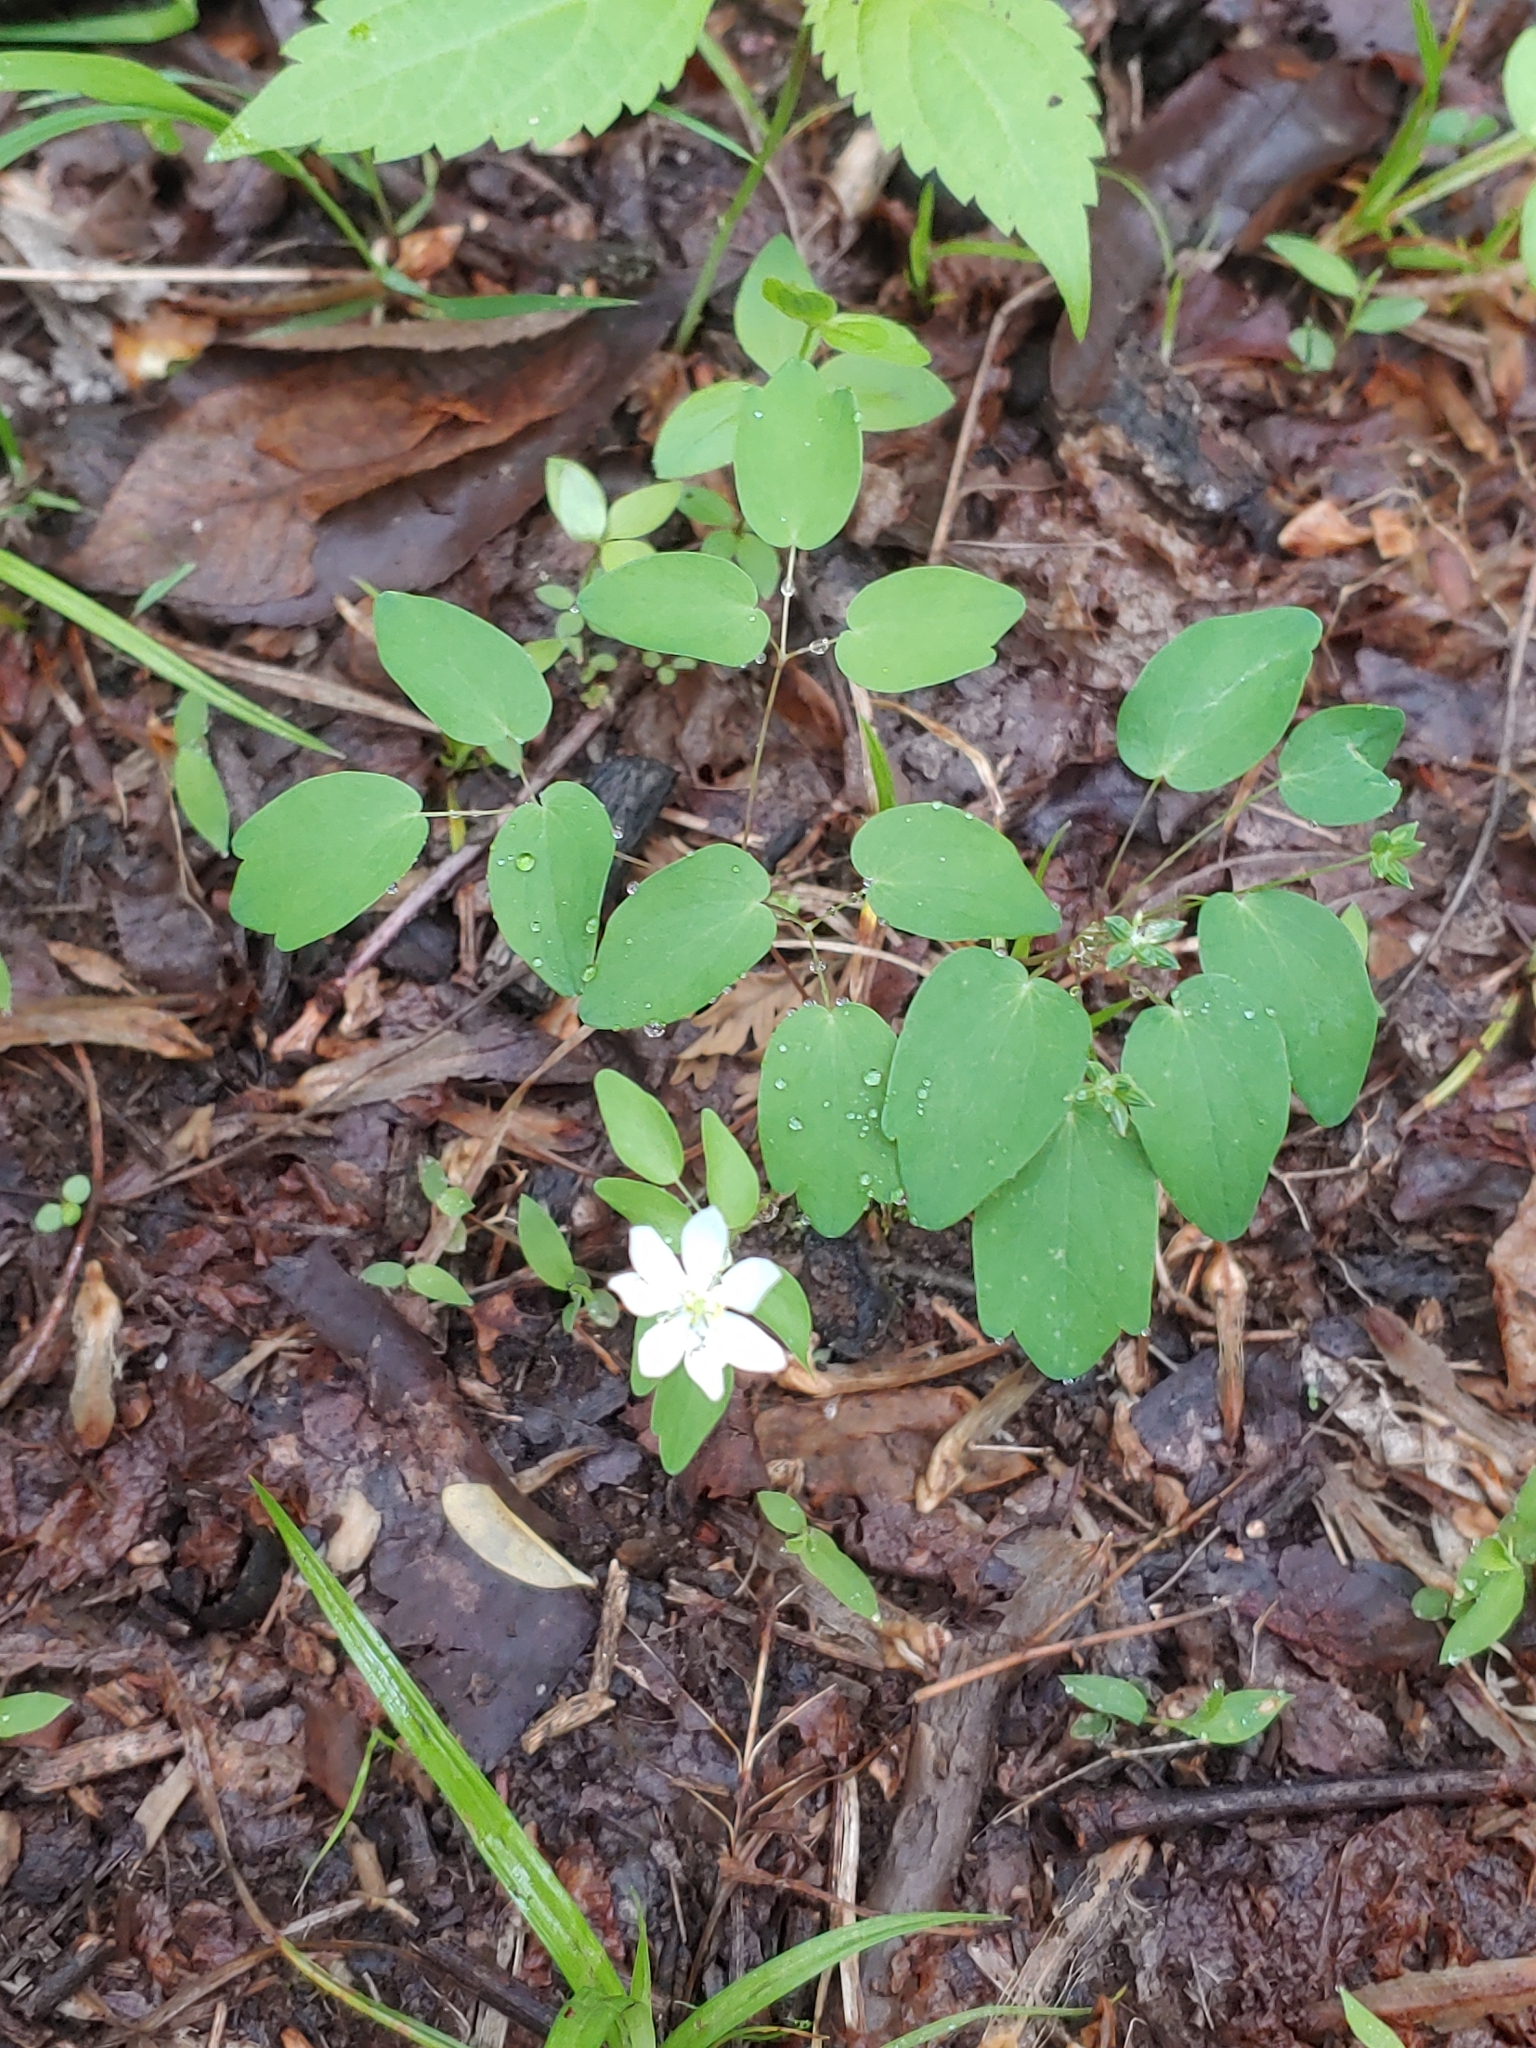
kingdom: Plantae
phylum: Tracheophyta
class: Magnoliopsida
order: Ranunculales
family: Ranunculaceae
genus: Thalictrum
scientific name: Thalictrum thalictroides
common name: Rue-anemone
